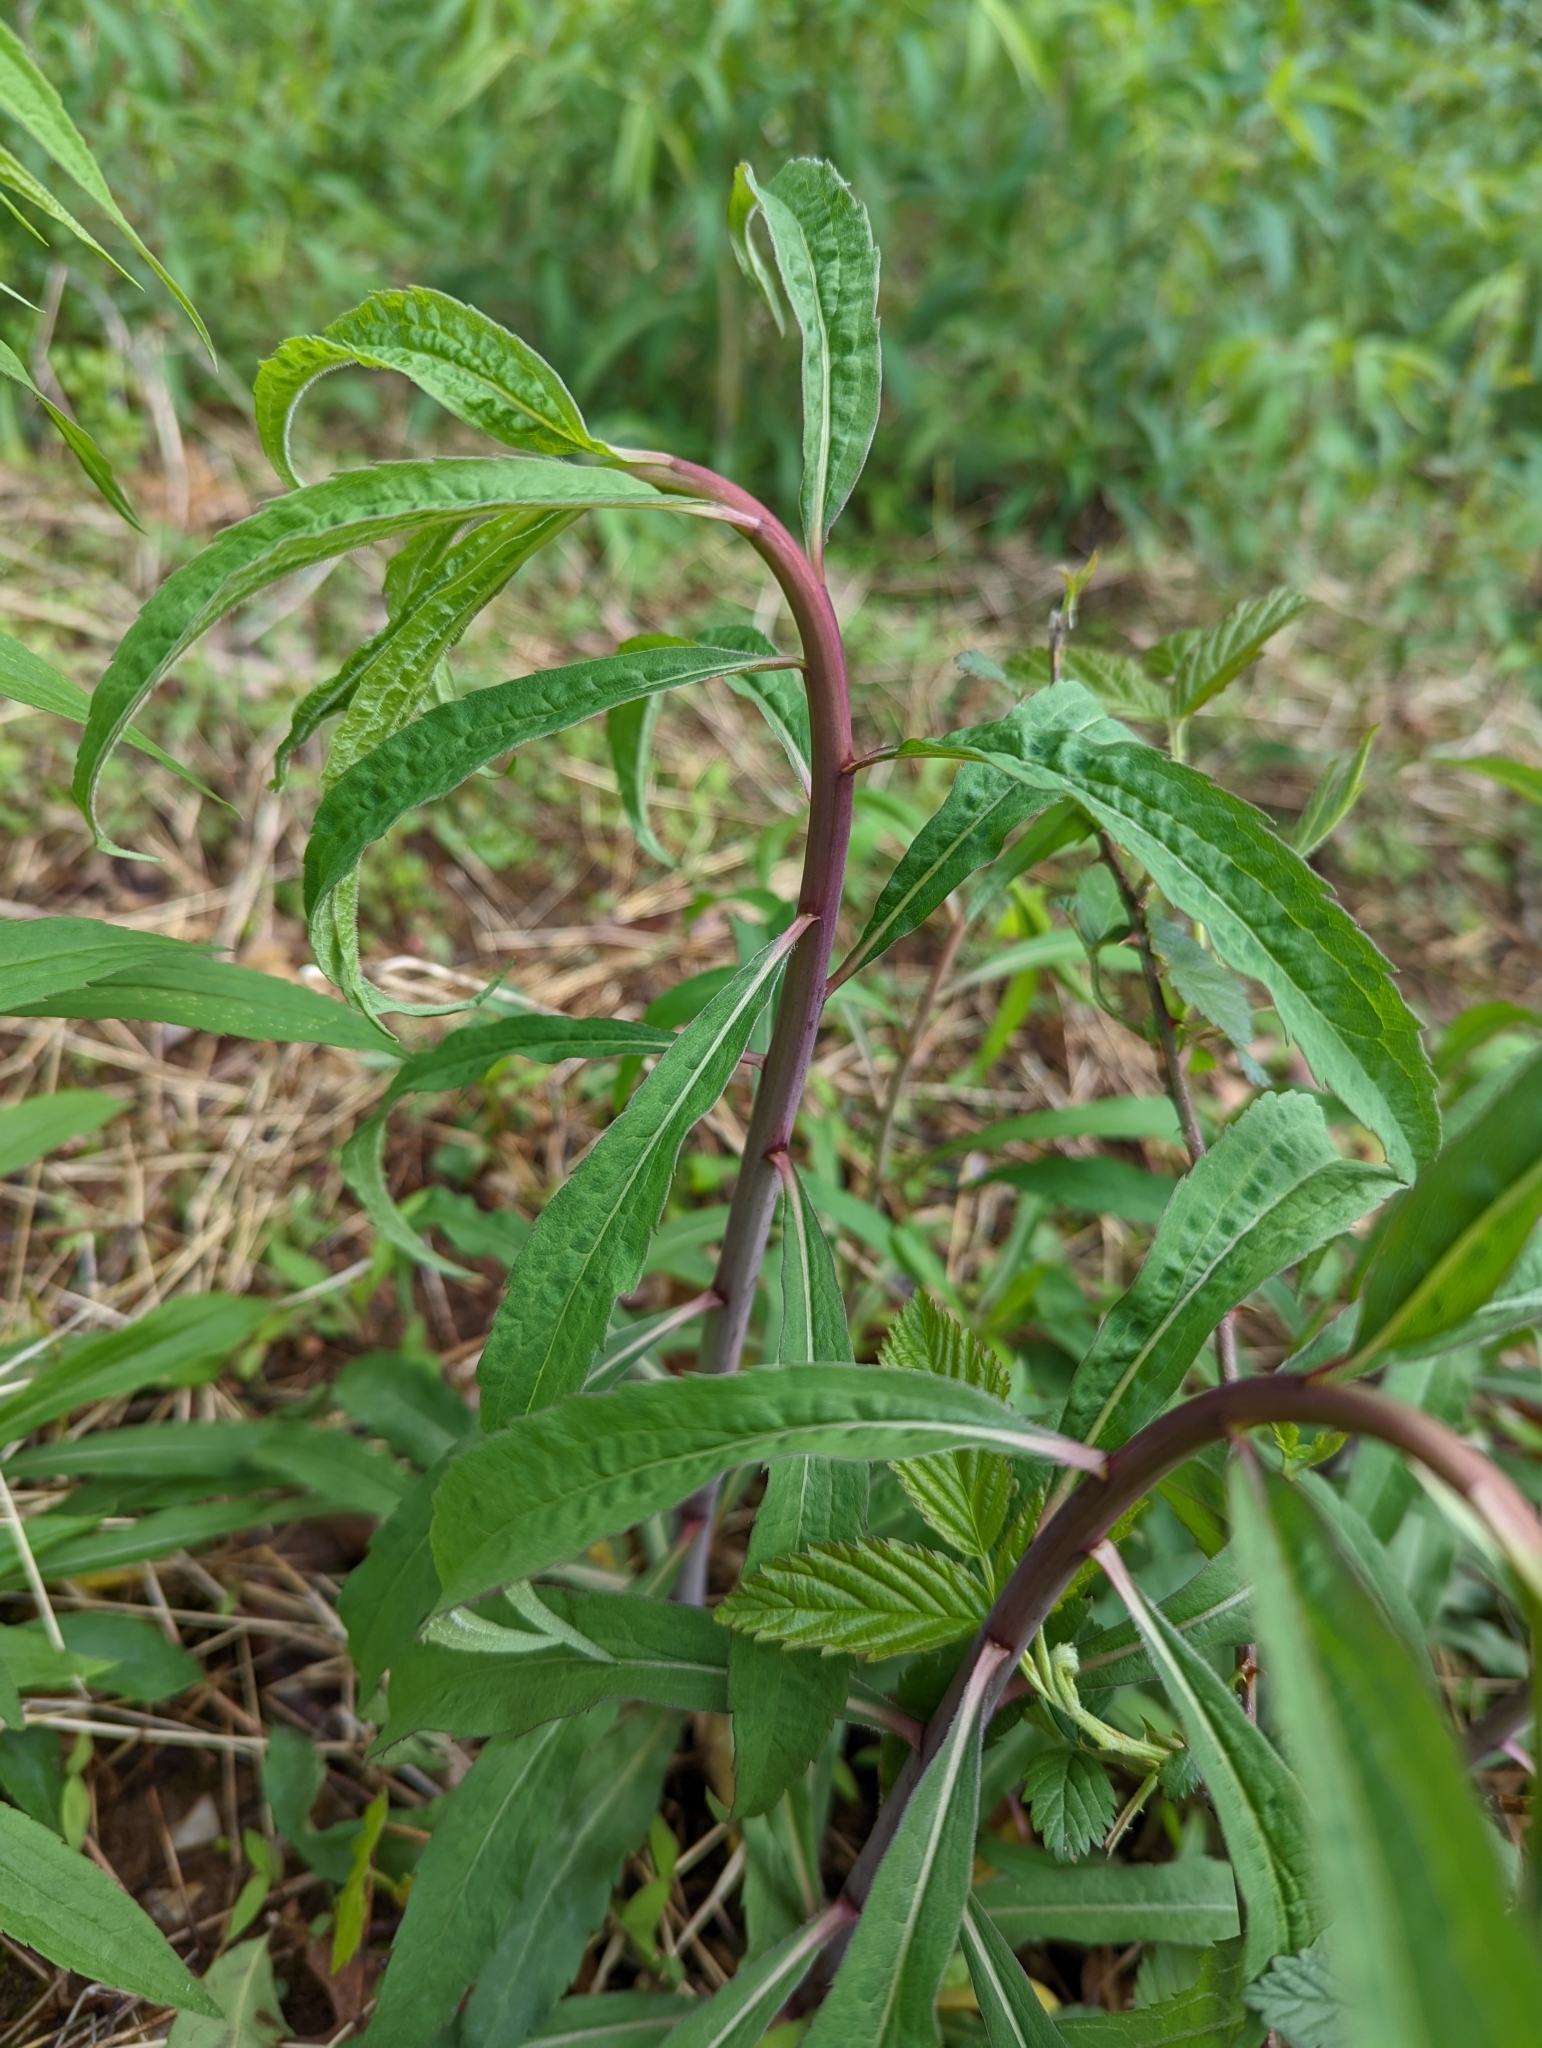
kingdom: Plantae
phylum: Tracheophyta
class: Magnoliopsida
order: Asterales
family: Asteraceae
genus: Solidago
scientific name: Solidago gigantea
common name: Giant goldenrod
